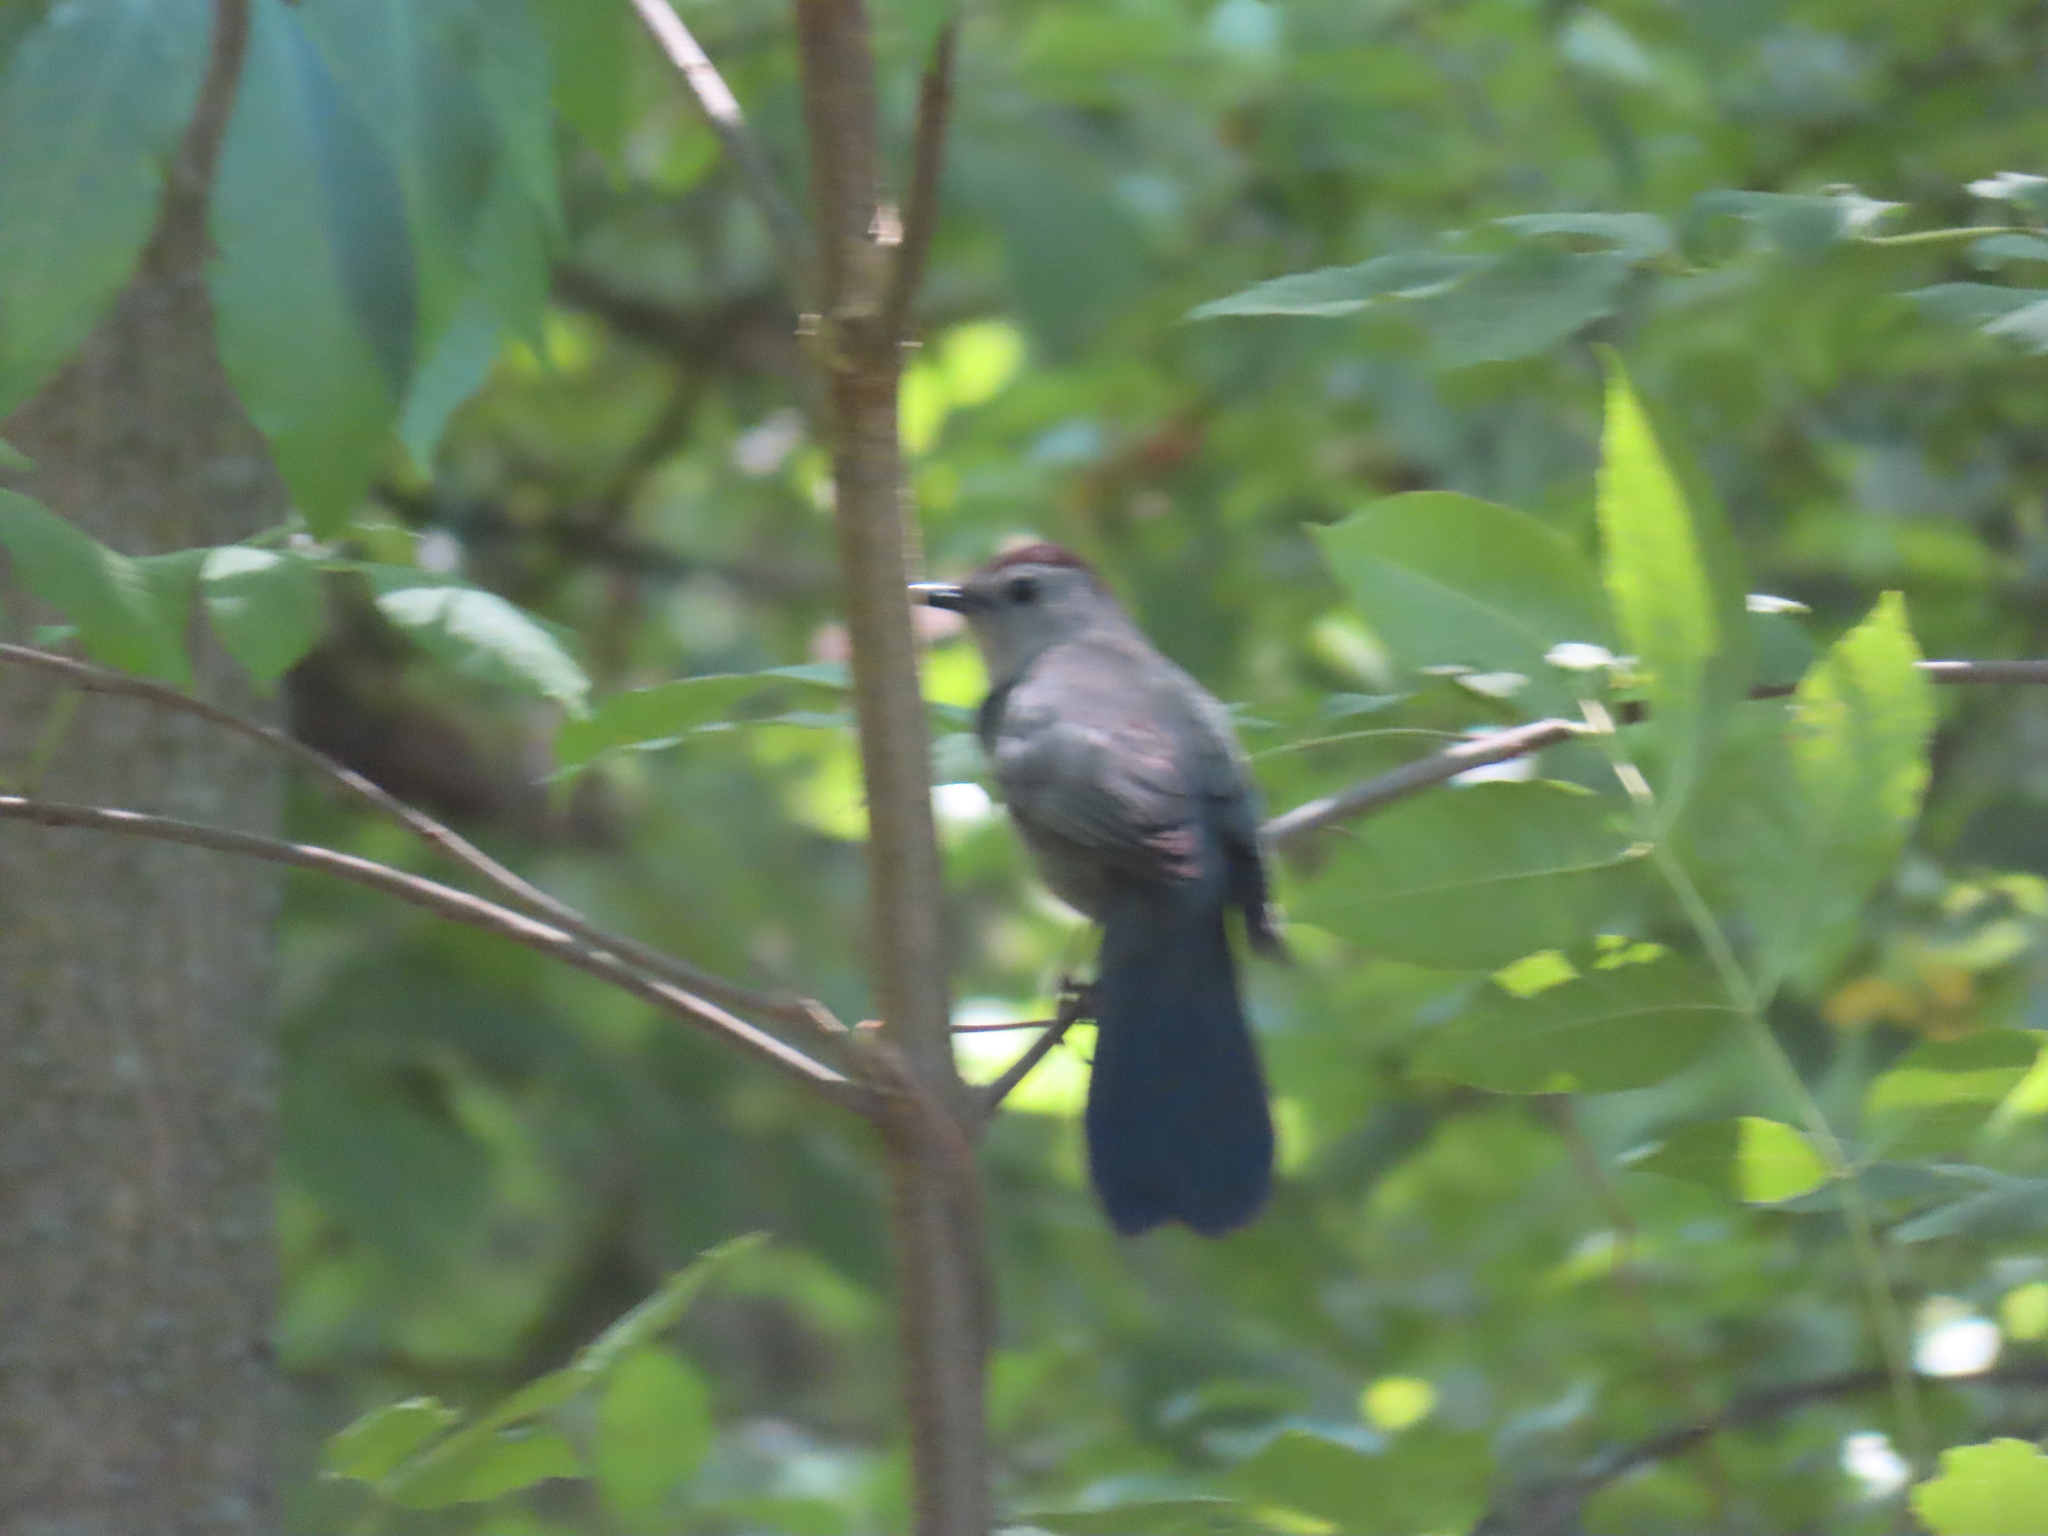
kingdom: Animalia
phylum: Chordata
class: Aves
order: Passeriformes
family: Mimidae
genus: Dumetella
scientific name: Dumetella carolinensis
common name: Gray catbird
